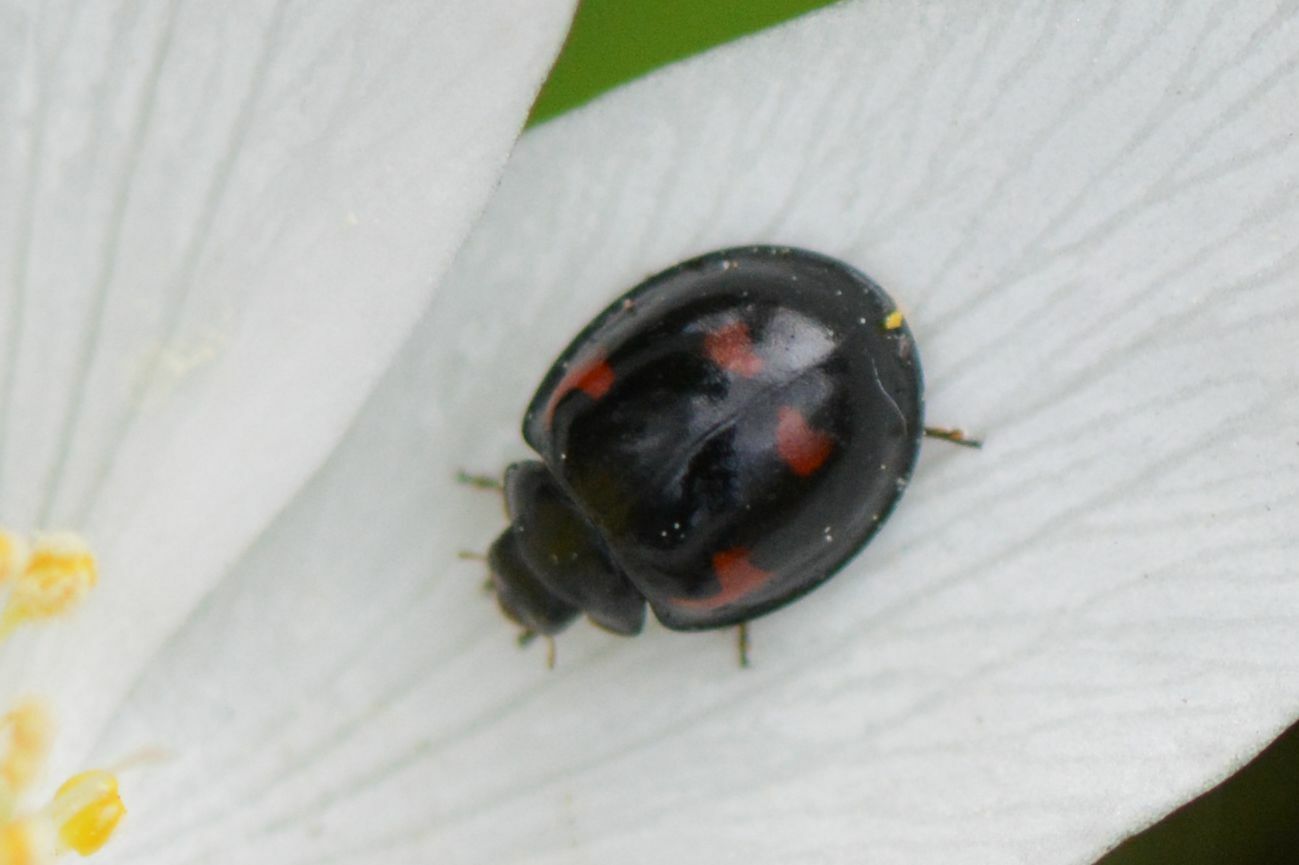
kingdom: Animalia
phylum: Arthropoda
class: Insecta
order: Coleoptera
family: Coccinellidae
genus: Brumus
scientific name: Brumus quadripustulatus
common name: Ladybird beetle
